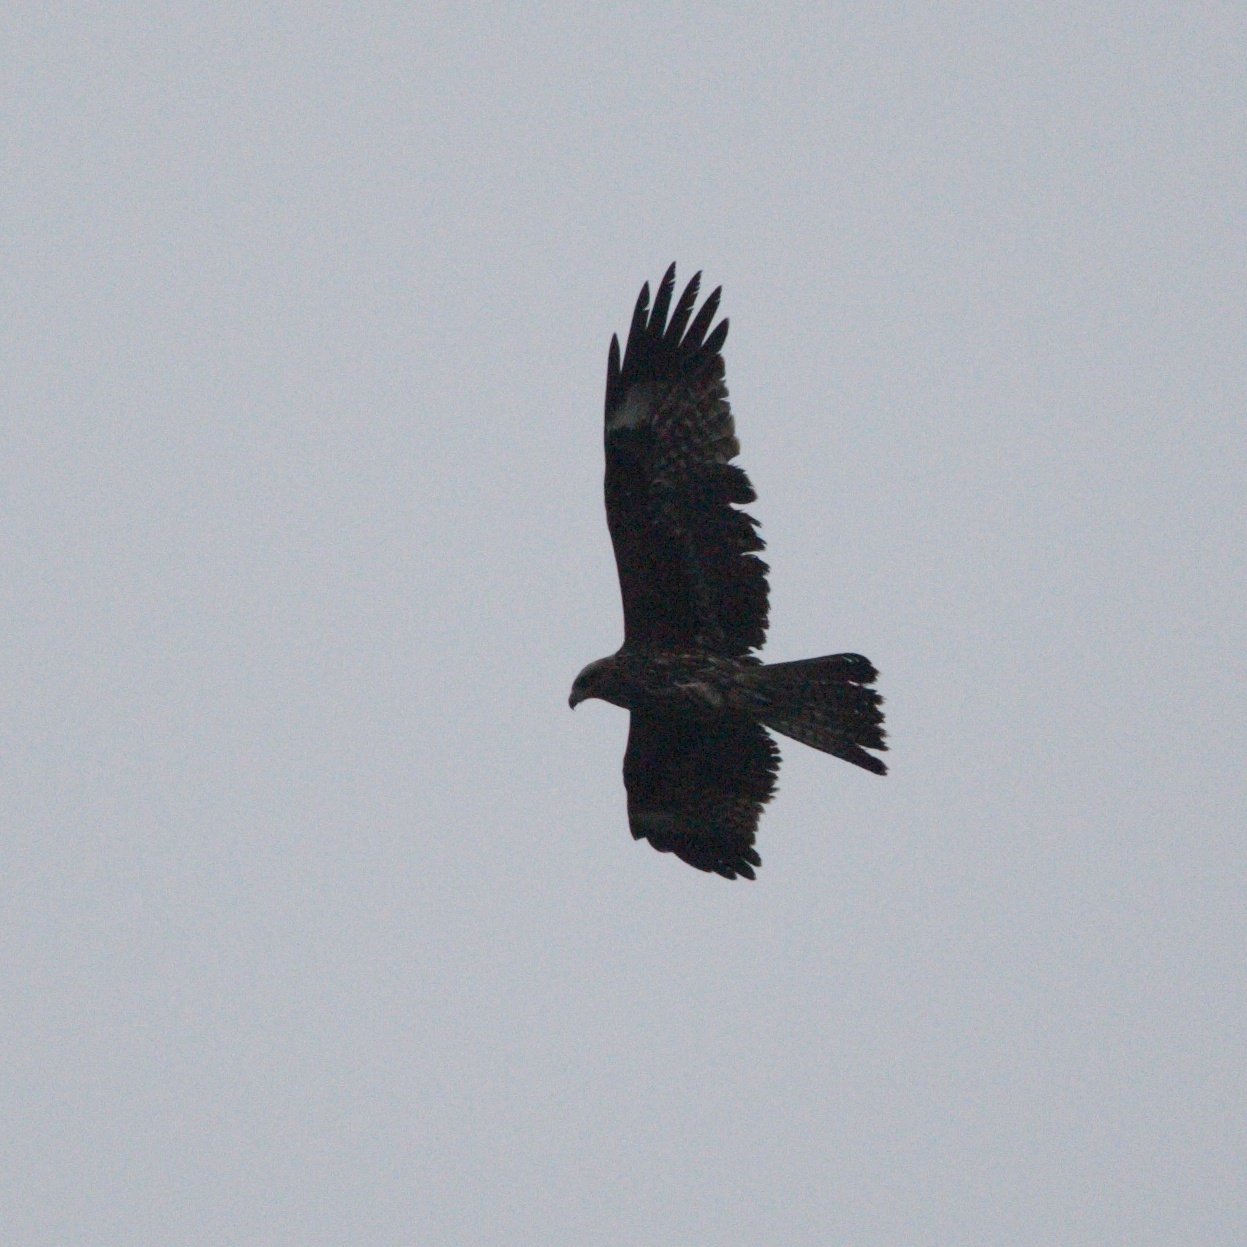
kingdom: Animalia
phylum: Chordata
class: Aves
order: Accipitriformes
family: Accipitridae
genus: Milvus
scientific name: Milvus migrans
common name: Black kite
